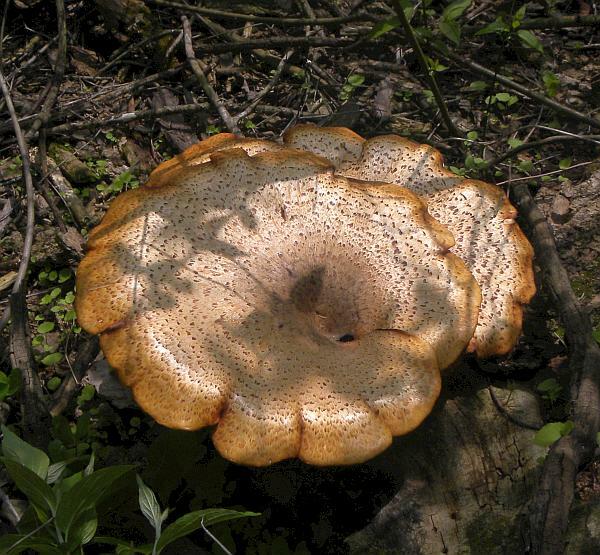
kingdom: Fungi
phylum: Basidiomycota
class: Agaricomycetes
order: Polyporales
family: Polyporaceae
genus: Cerioporus
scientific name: Cerioporus squamosus
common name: Dryad's saddle
